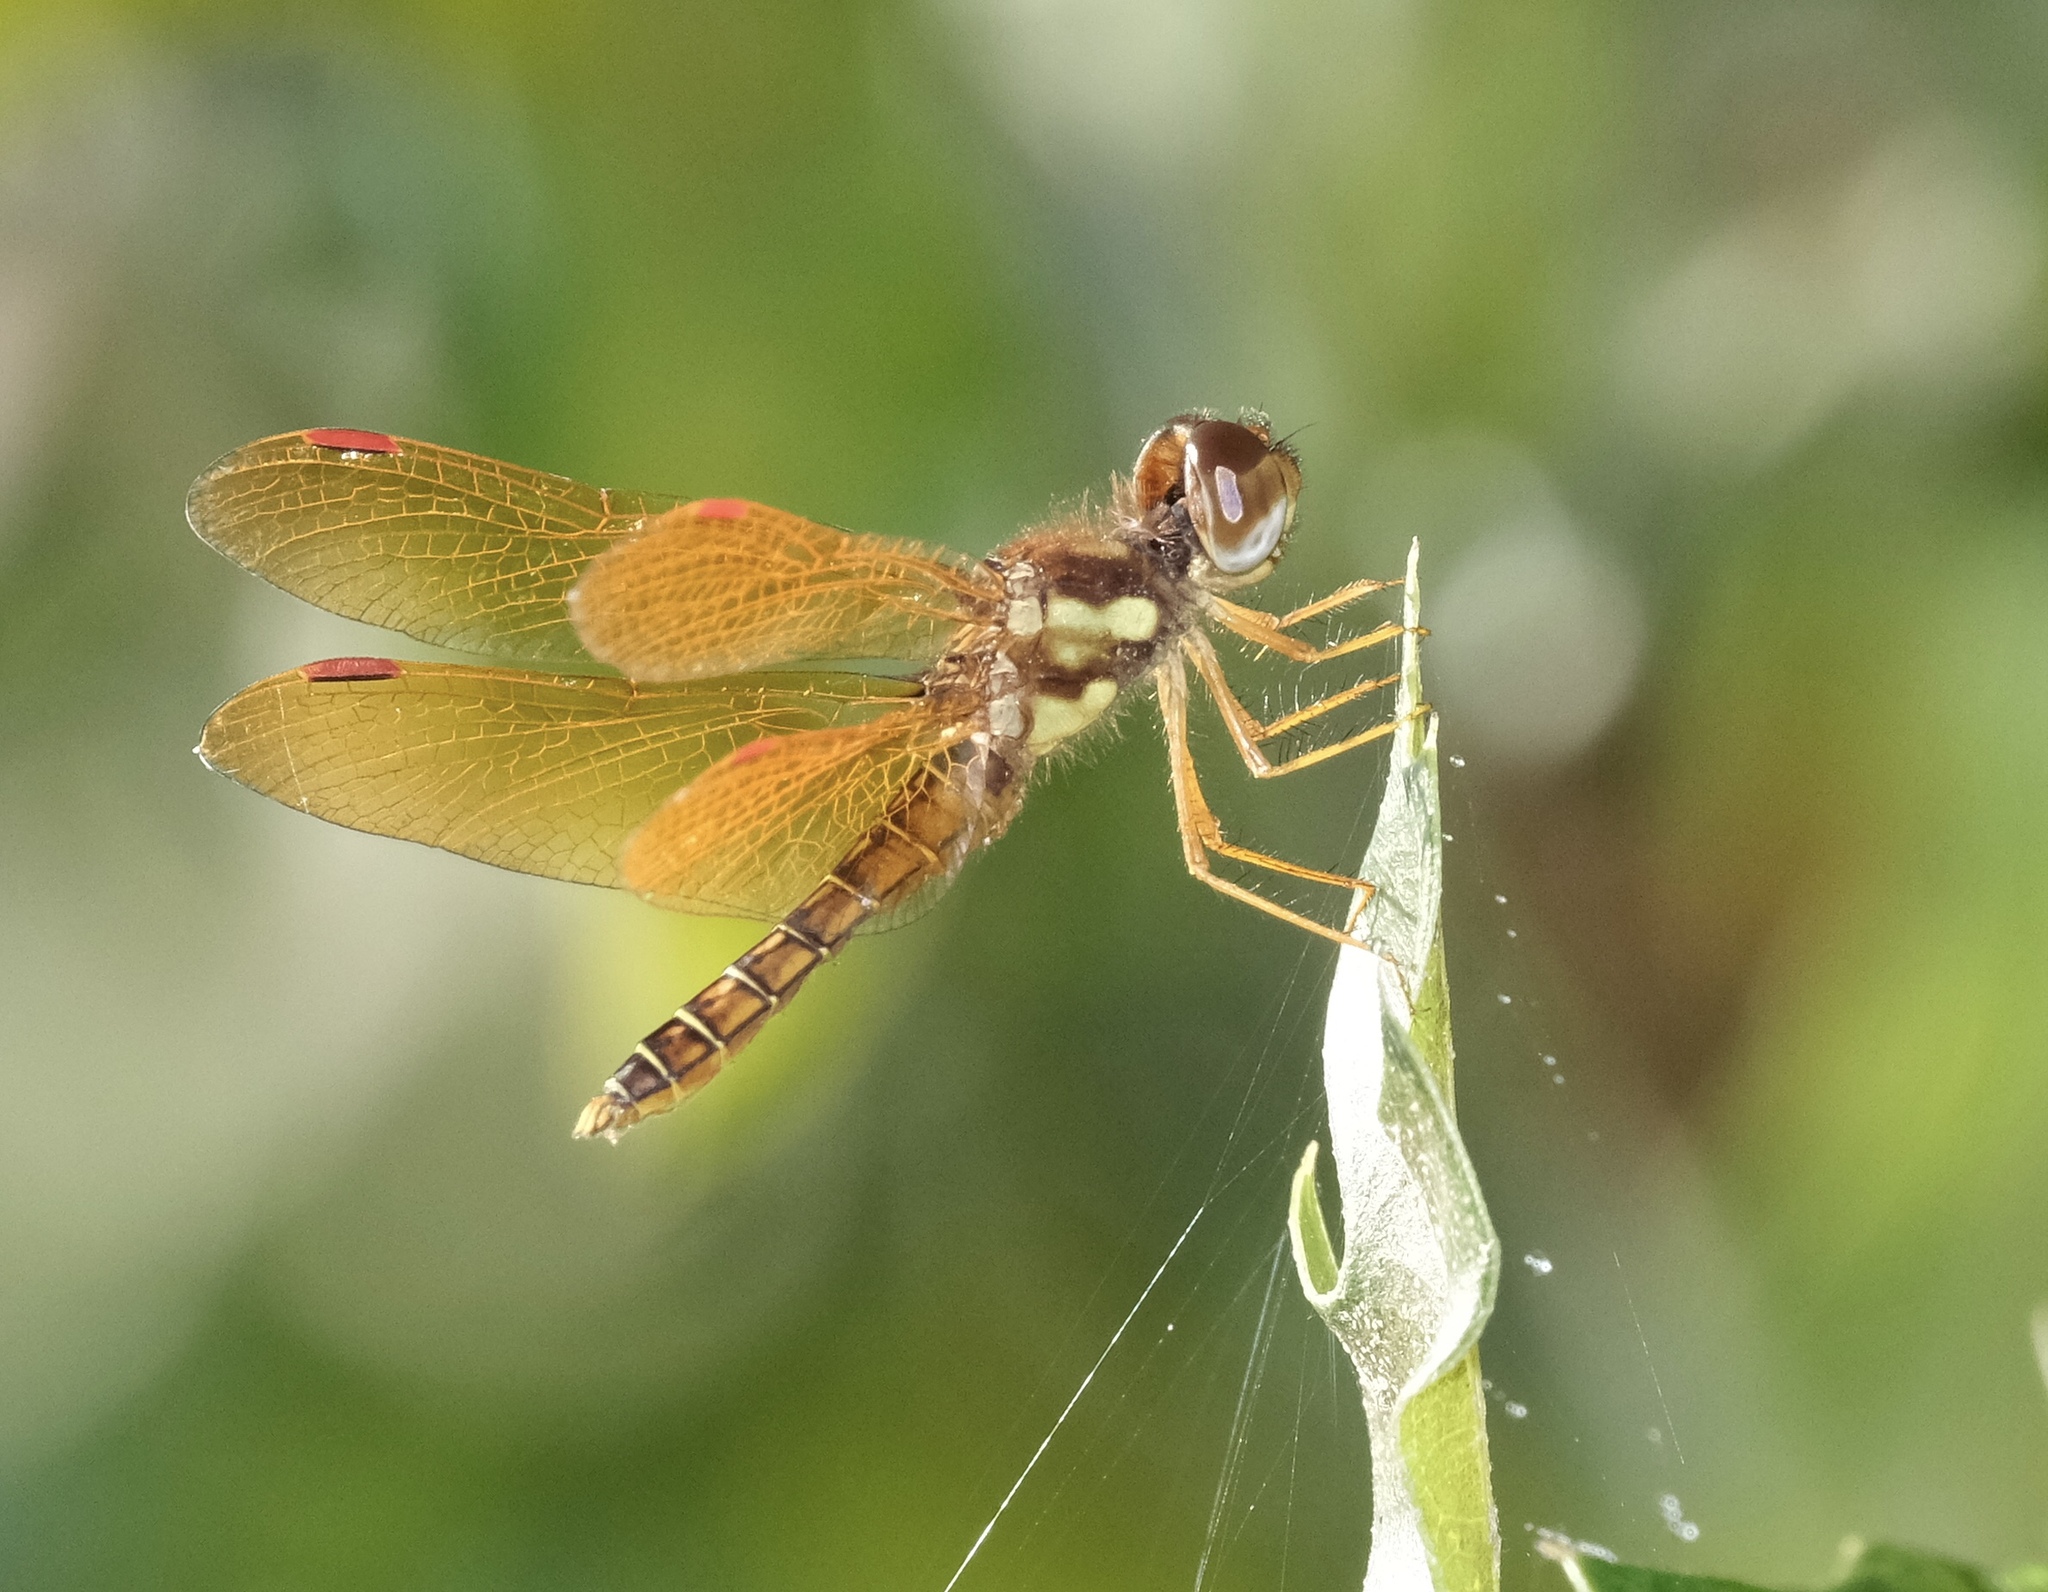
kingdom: Animalia
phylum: Arthropoda
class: Insecta
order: Odonata
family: Libellulidae
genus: Perithemis
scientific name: Perithemis tenera
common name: Eastern amberwing
